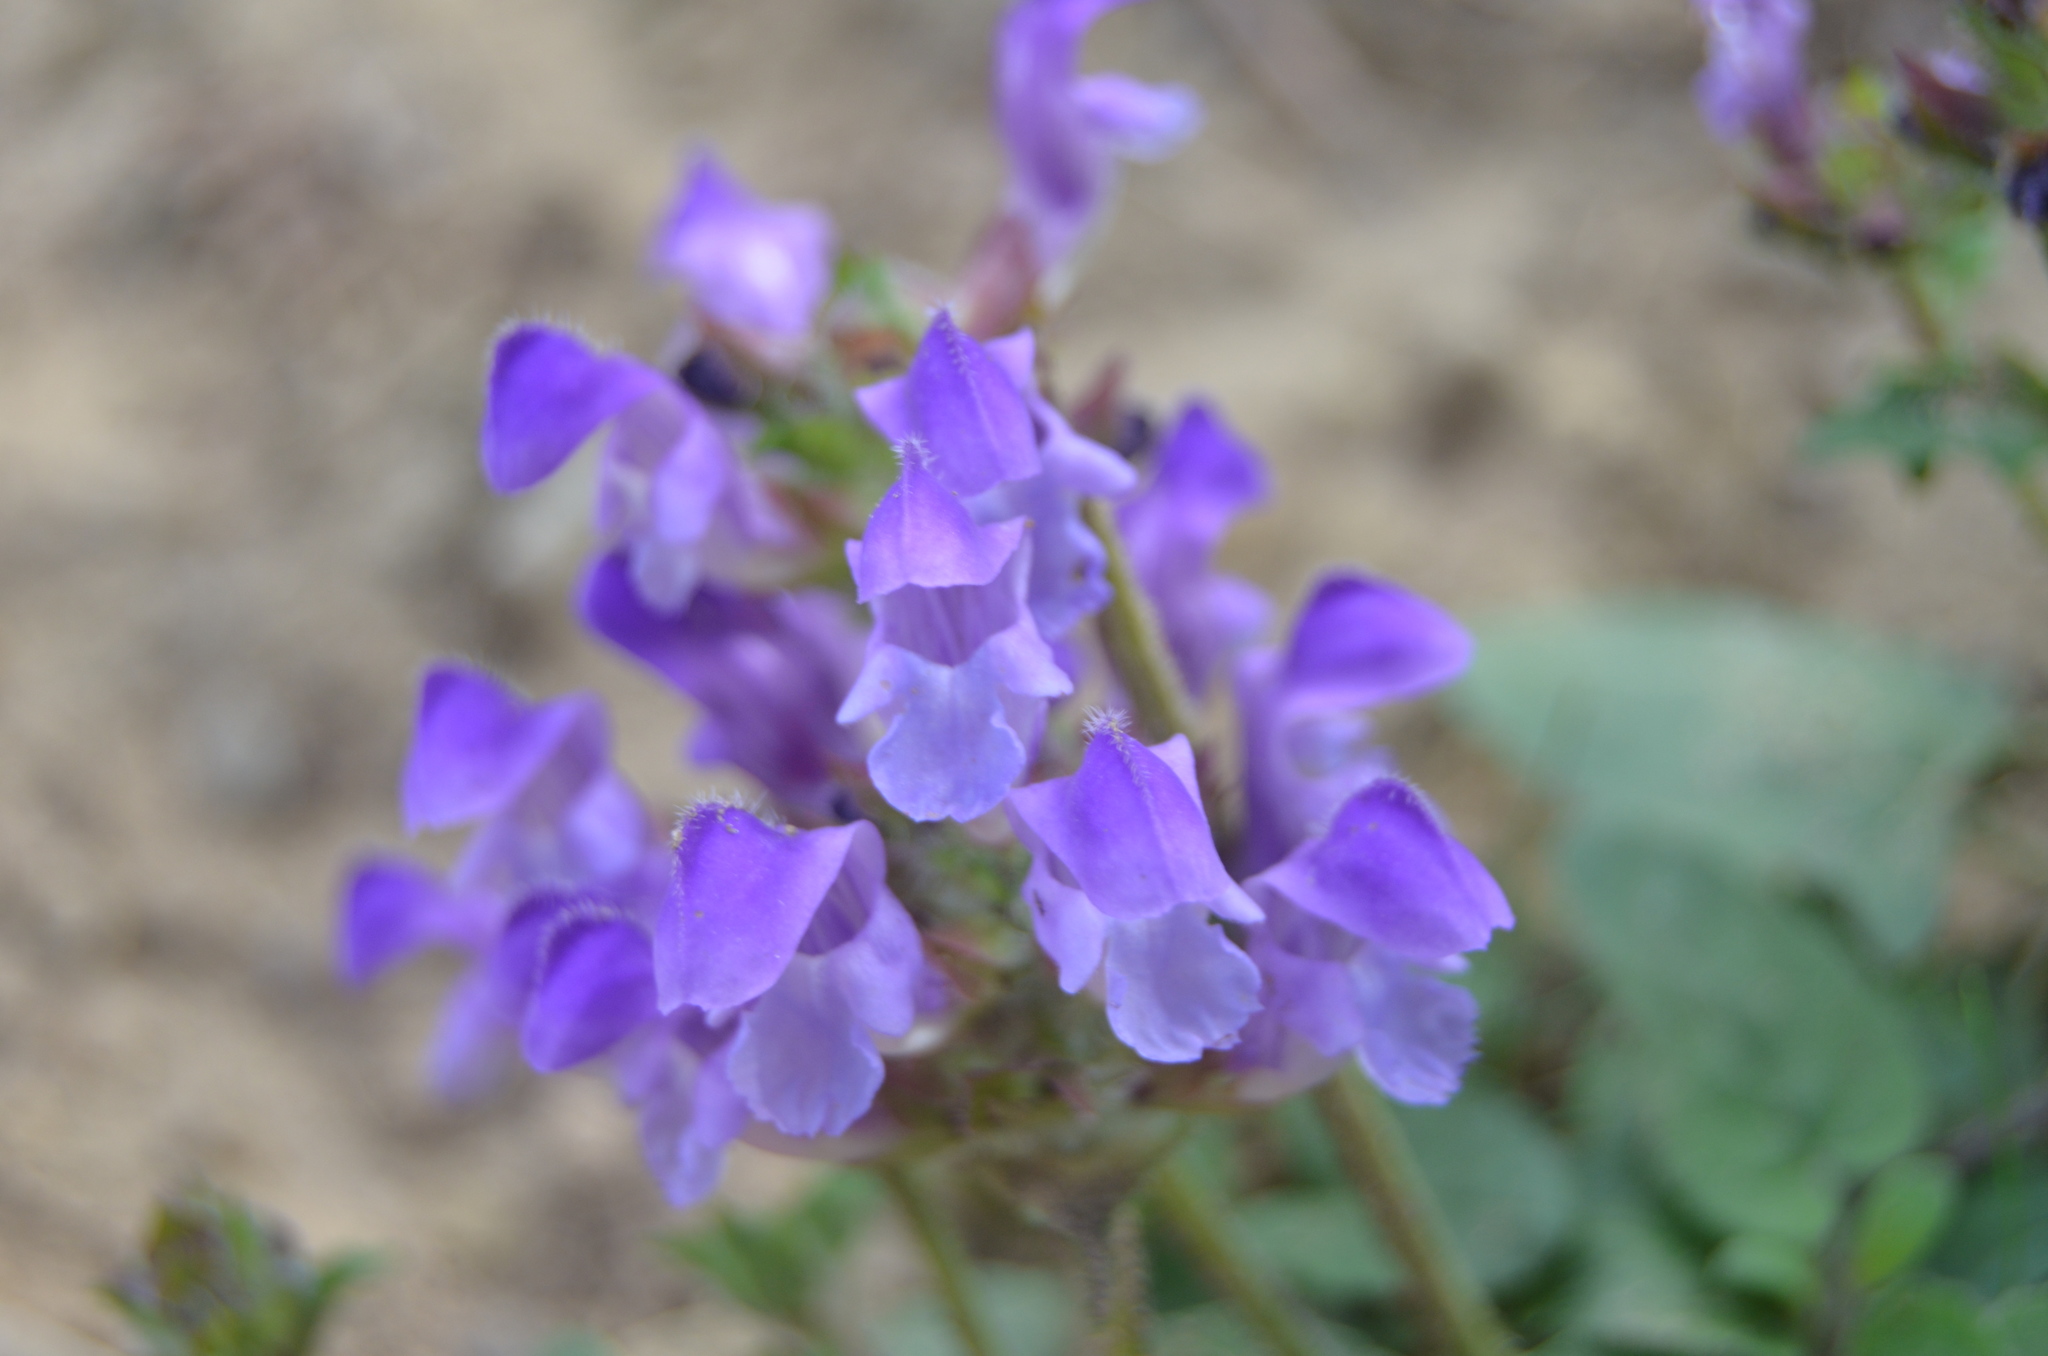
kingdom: Plantae
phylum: Tracheophyta
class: Magnoliopsida
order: Lamiales
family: Lamiaceae
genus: Prunella
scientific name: Prunella vulgaris
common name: Heal-all
